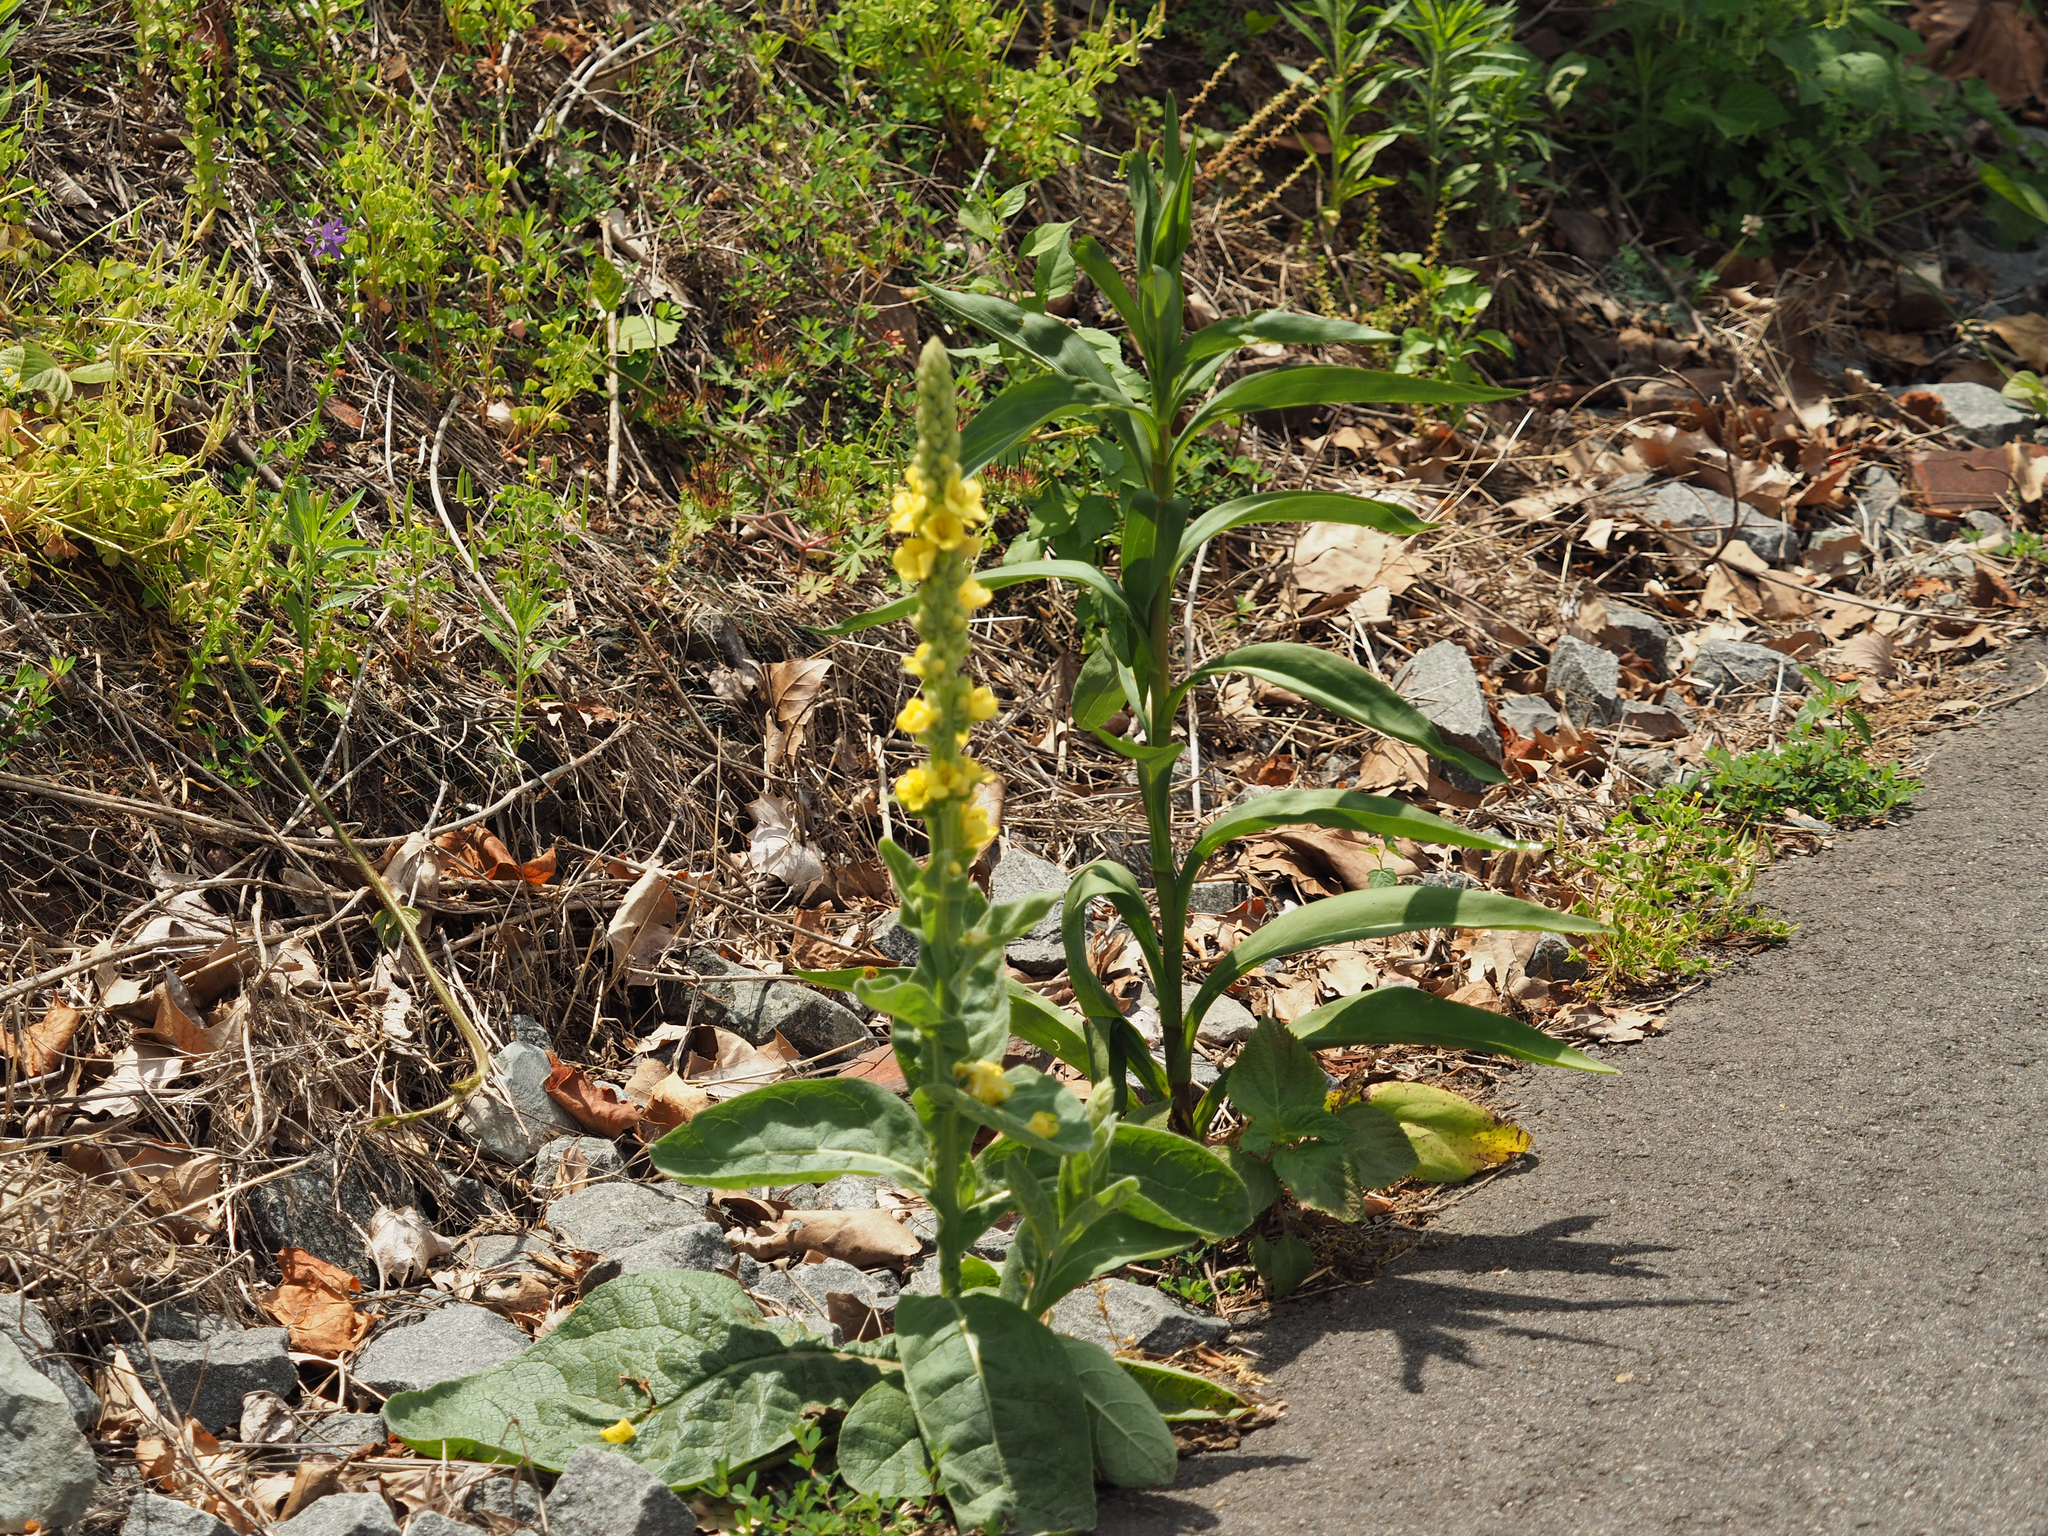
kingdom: Plantae
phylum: Tracheophyta
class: Magnoliopsida
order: Lamiales
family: Scrophulariaceae
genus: Verbascum
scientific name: Verbascum thapsus
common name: Common mullein
